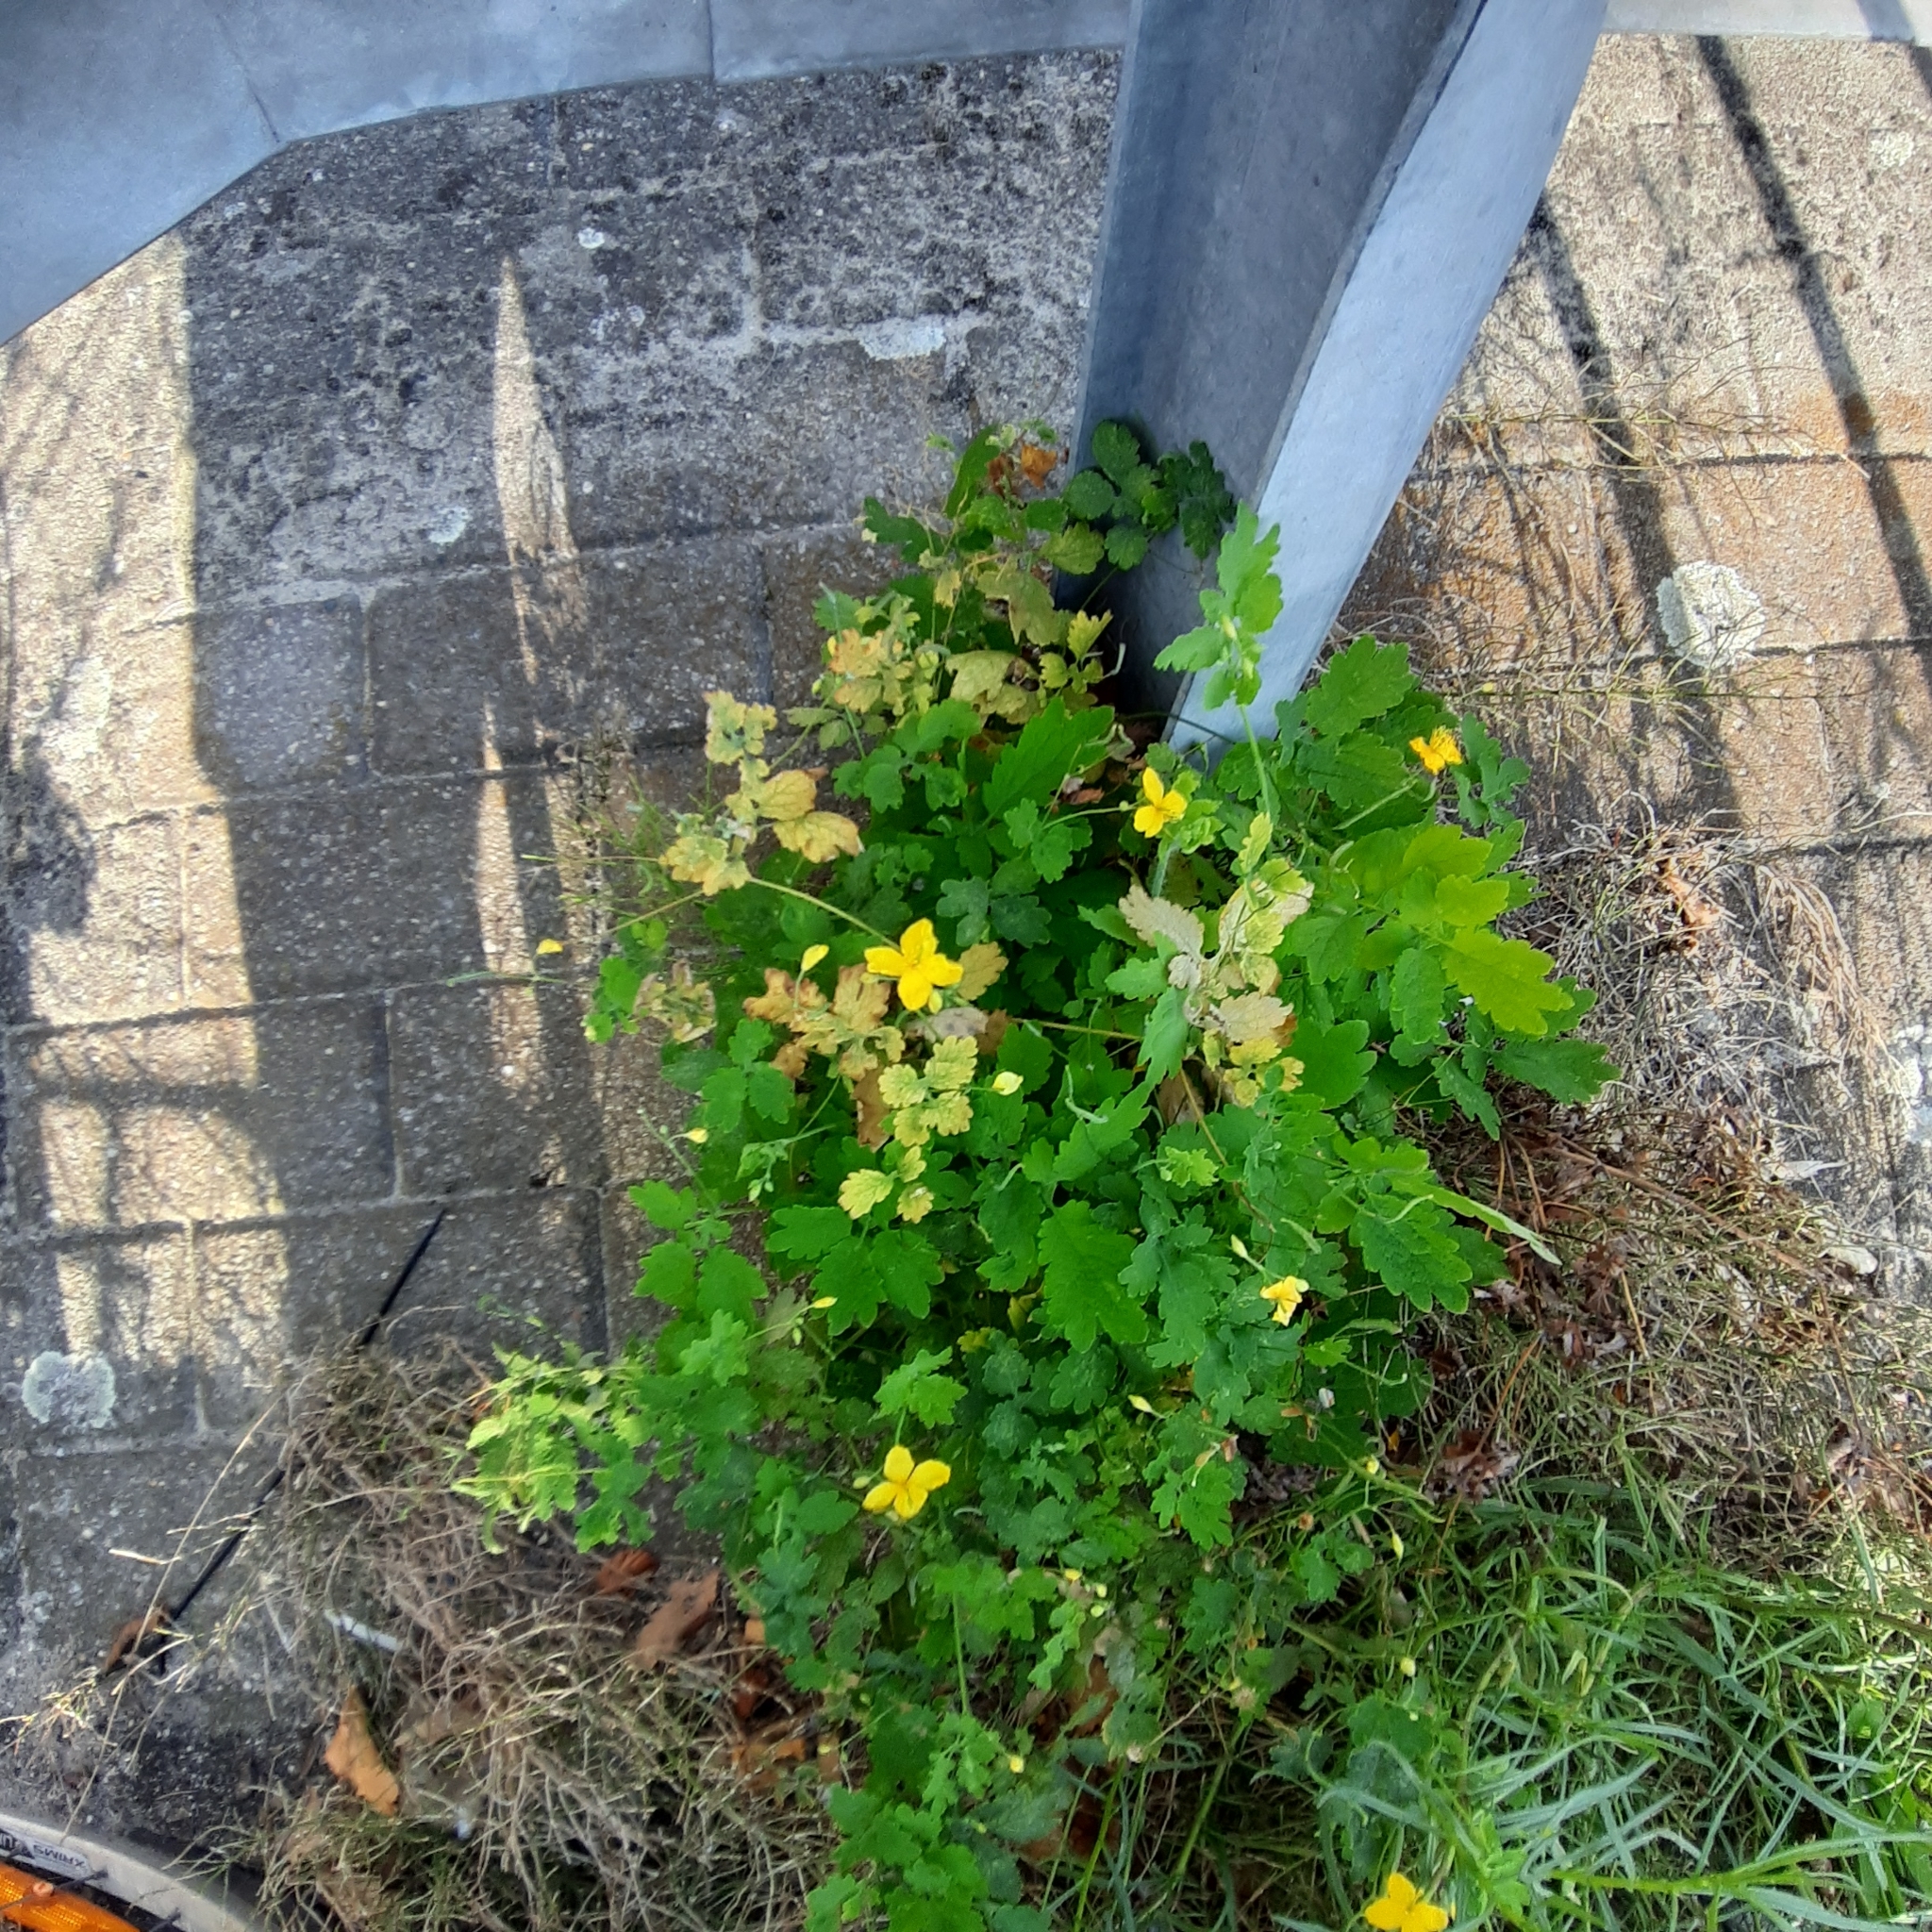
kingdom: Plantae
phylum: Tracheophyta
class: Magnoliopsida
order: Ranunculales
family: Papaveraceae
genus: Chelidonium
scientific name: Chelidonium majus
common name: Greater celandine
